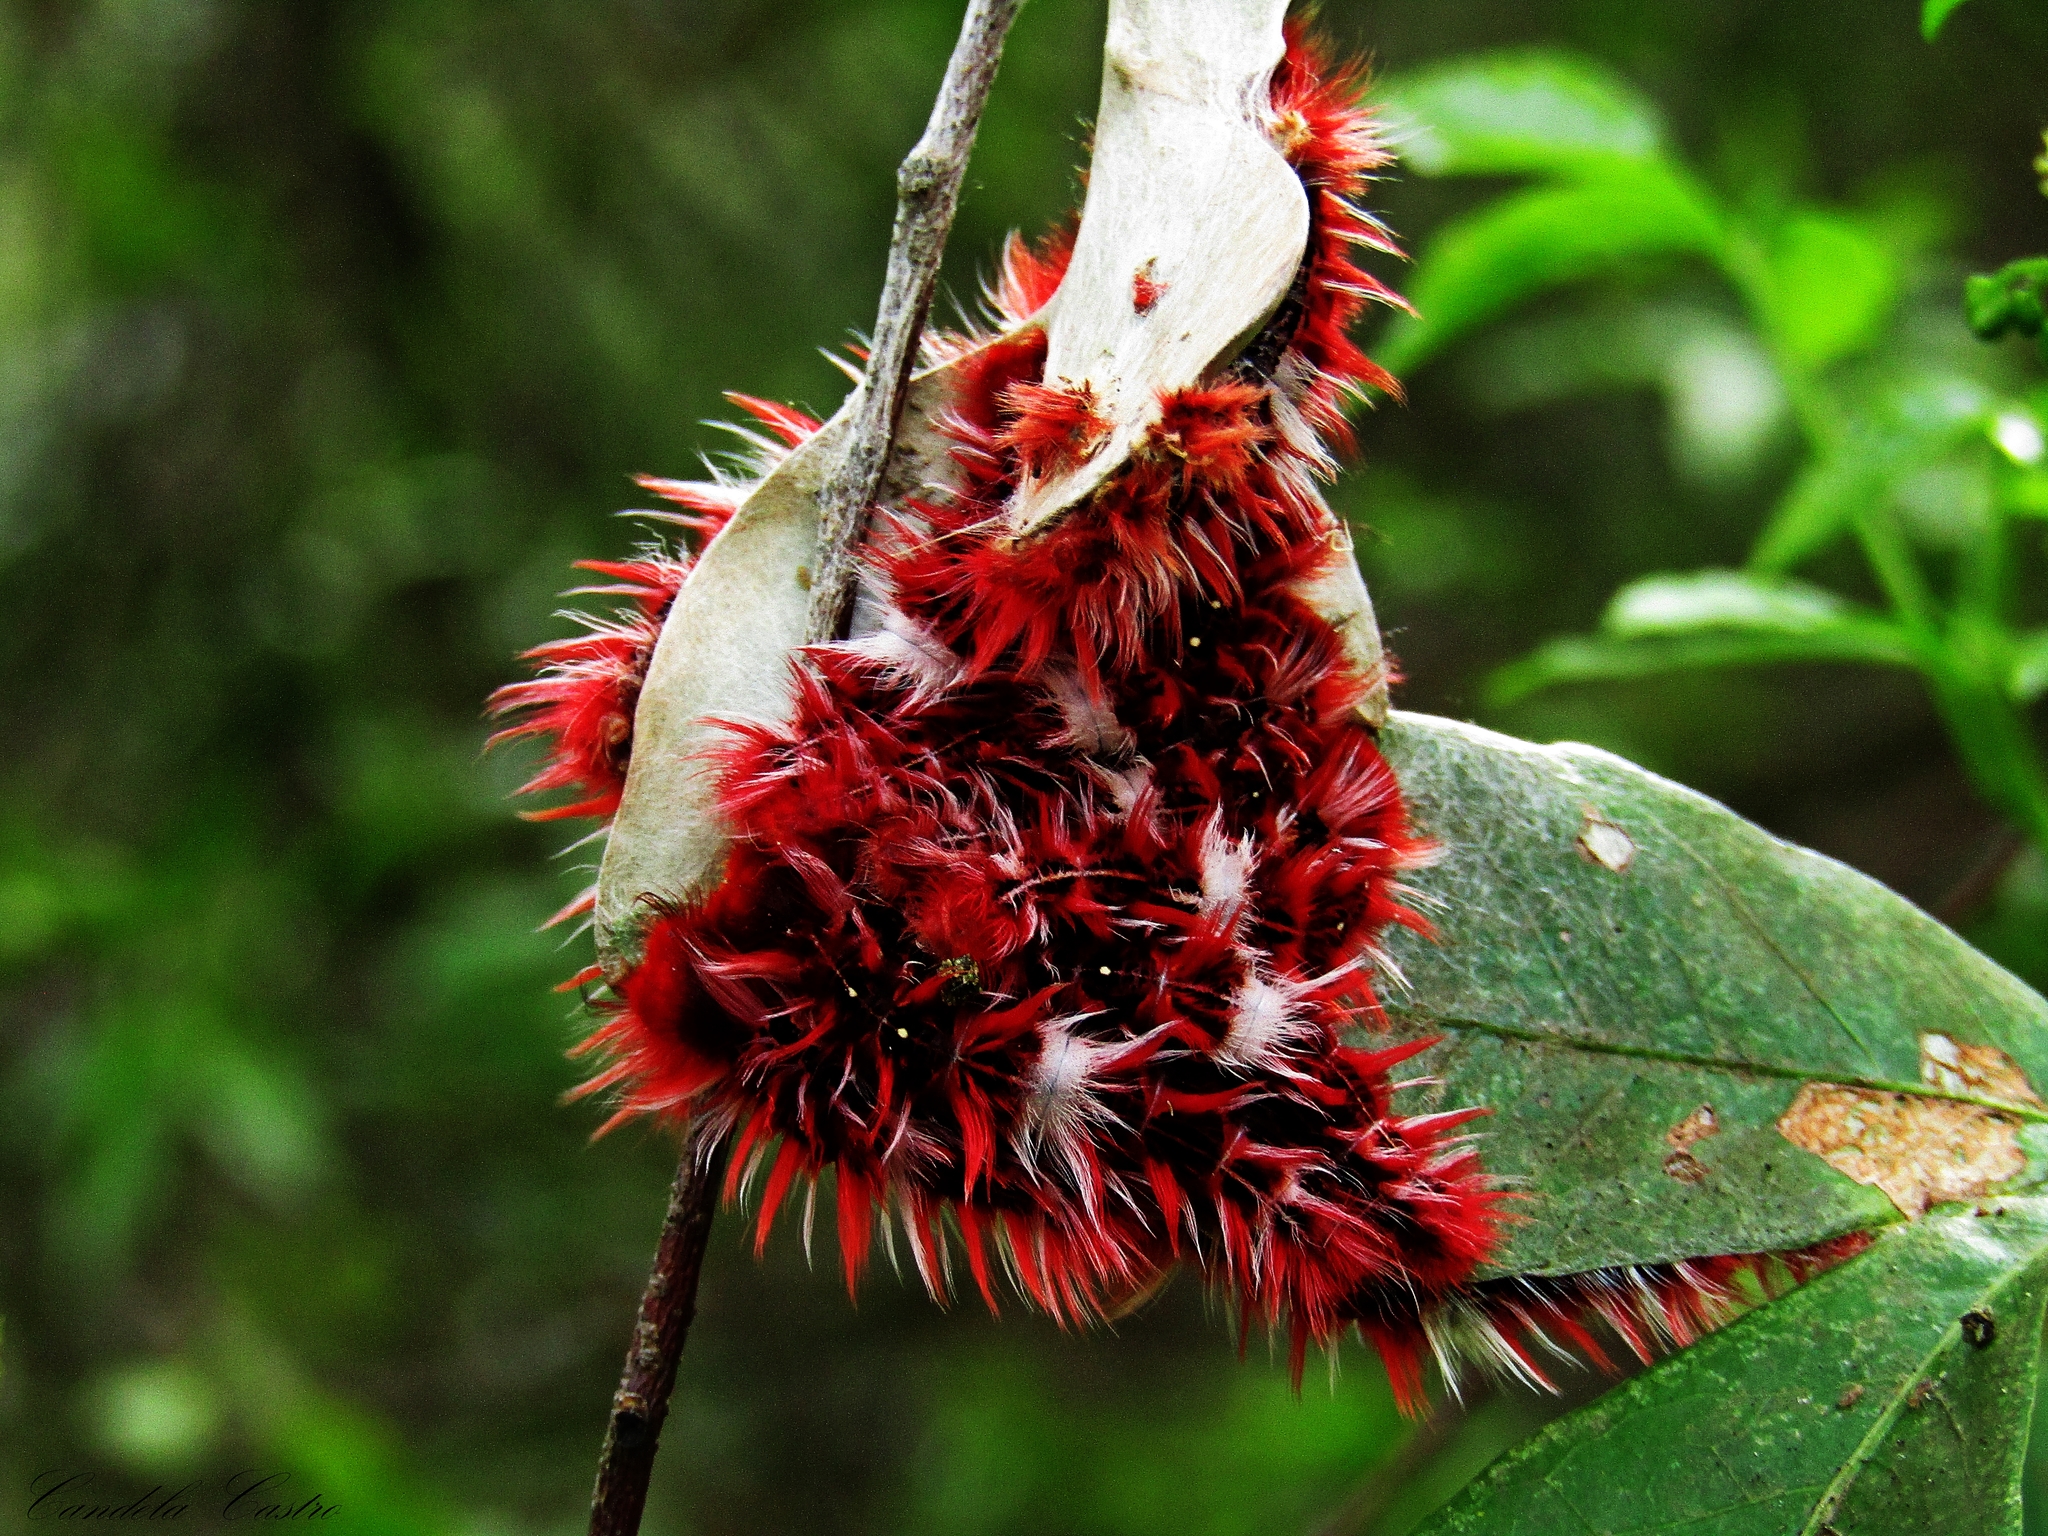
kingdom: Animalia
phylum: Arthropoda
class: Insecta
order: Lepidoptera
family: Nymphalidae
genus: Morpho
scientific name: Morpho epistrophus
